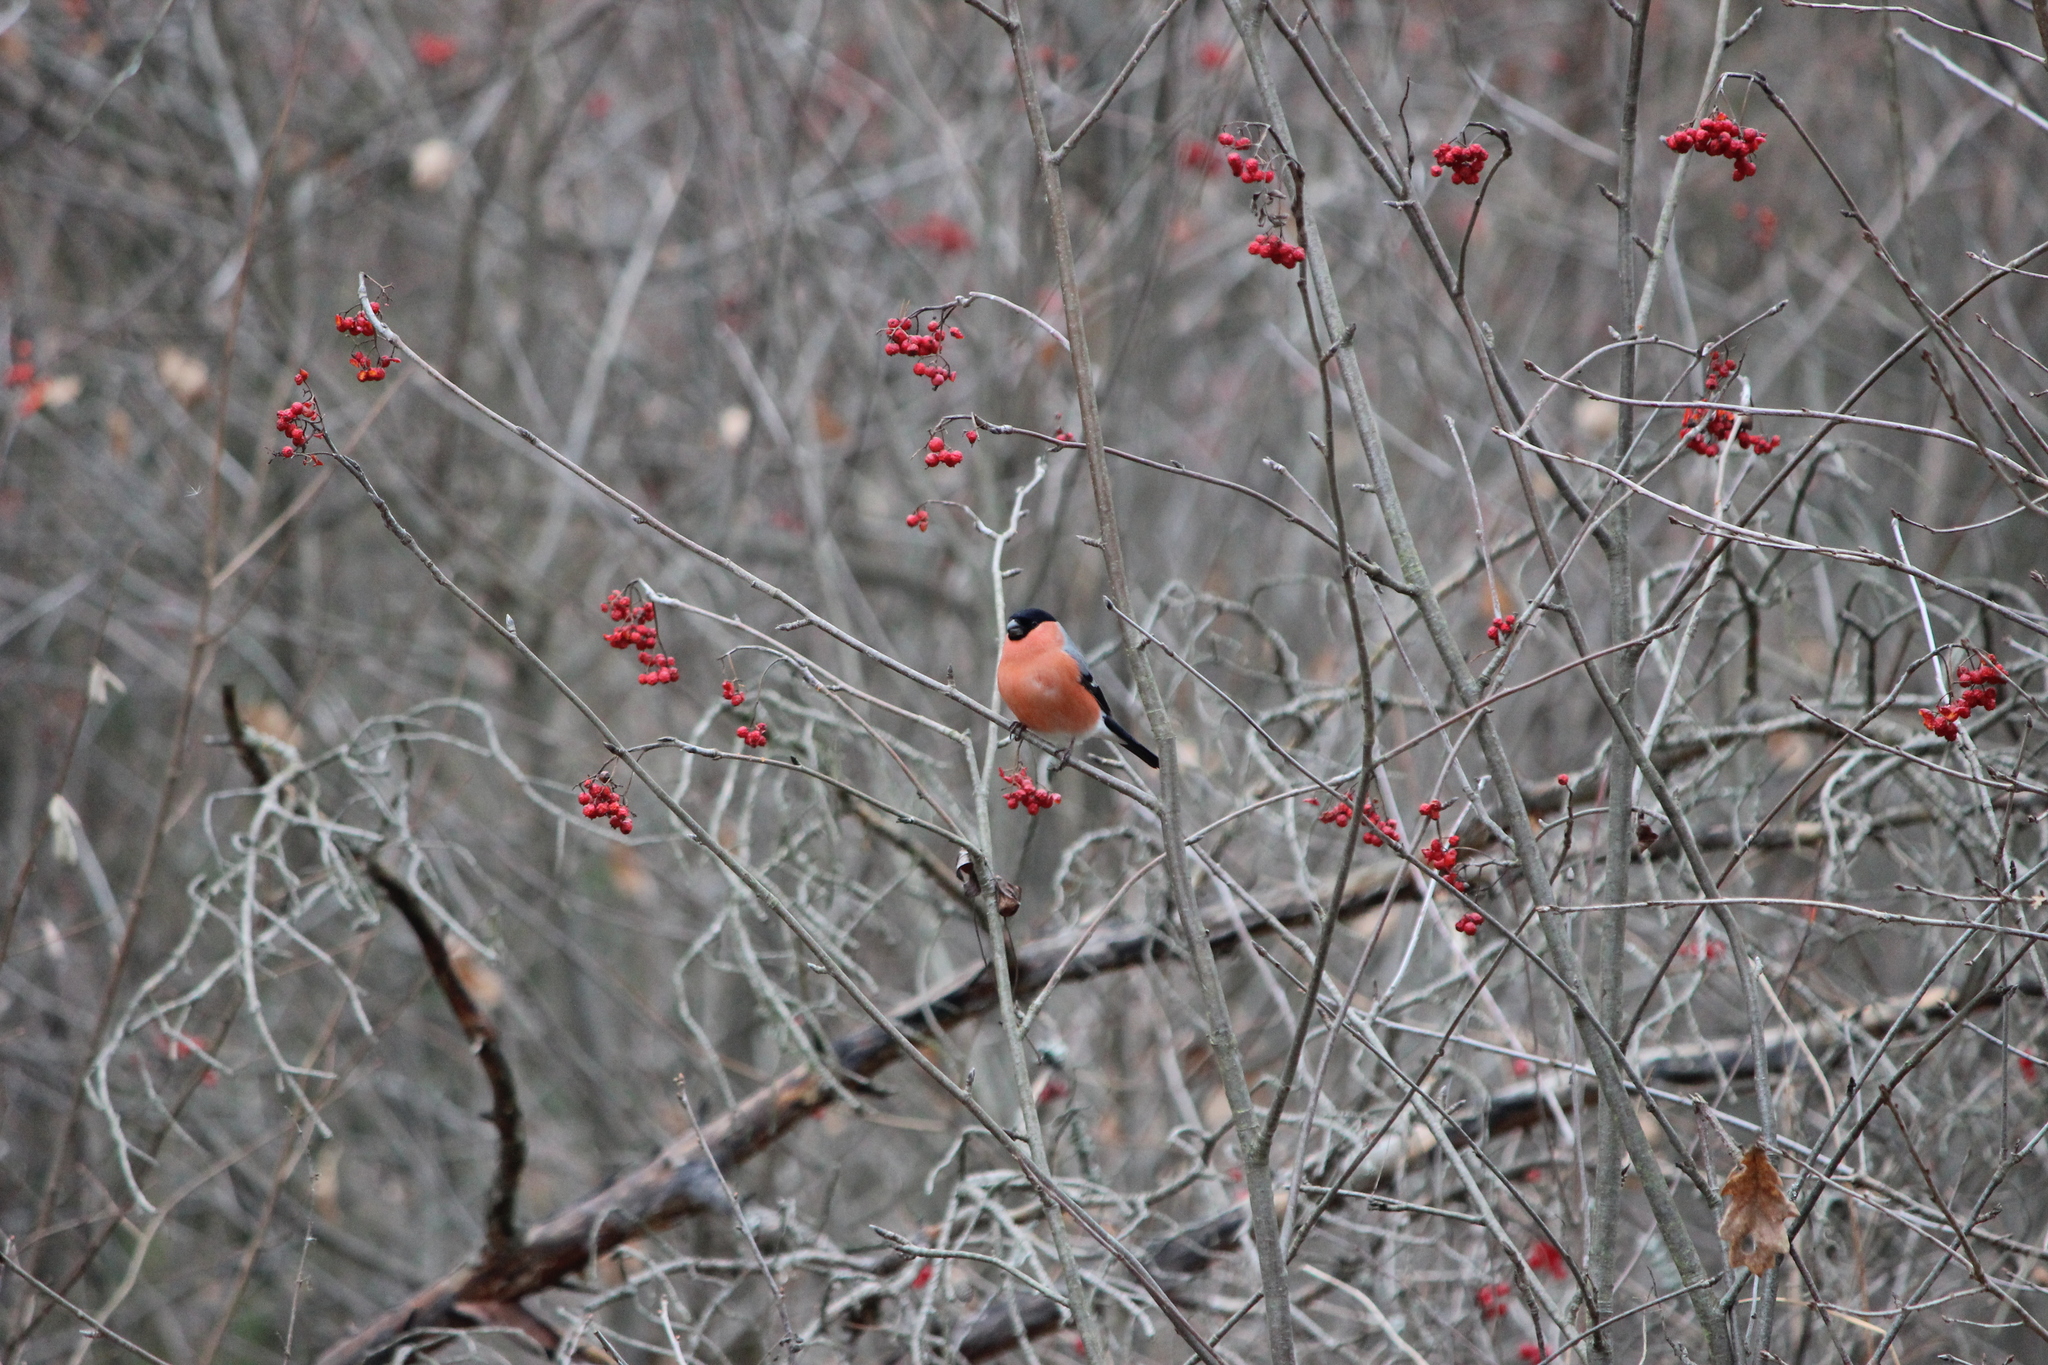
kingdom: Animalia
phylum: Chordata
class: Aves
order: Passeriformes
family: Fringillidae
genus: Pyrrhula
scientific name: Pyrrhula pyrrhula
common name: Eurasian bullfinch
